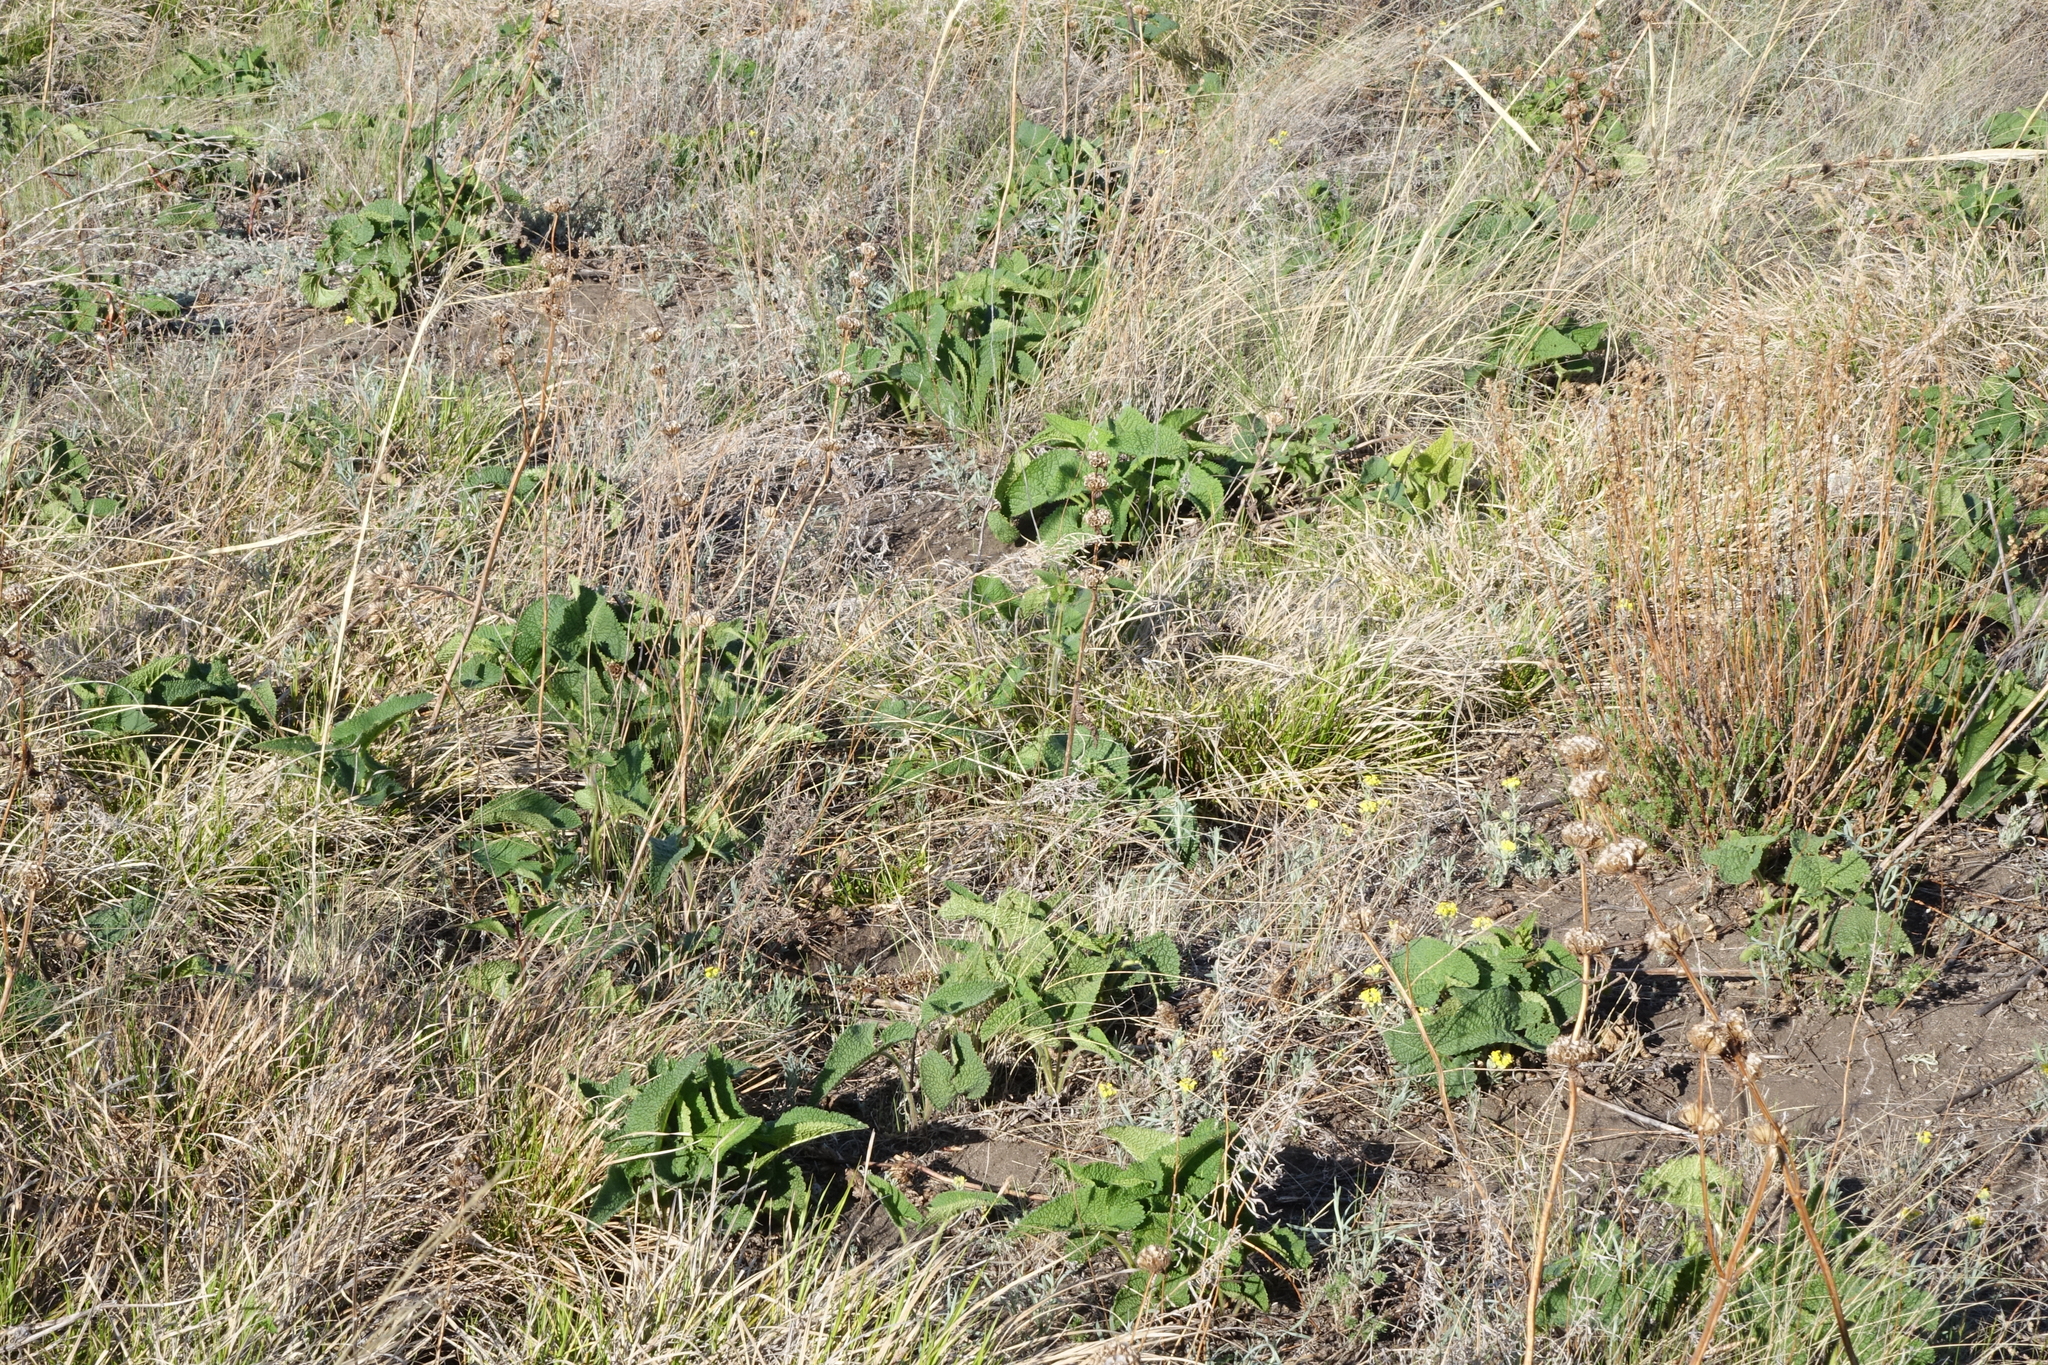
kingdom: Plantae
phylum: Tracheophyta
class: Magnoliopsida
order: Lamiales
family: Lamiaceae
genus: Phlomoides
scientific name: Phlomoides tuberosa
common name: Tuberous jerusalem sage
